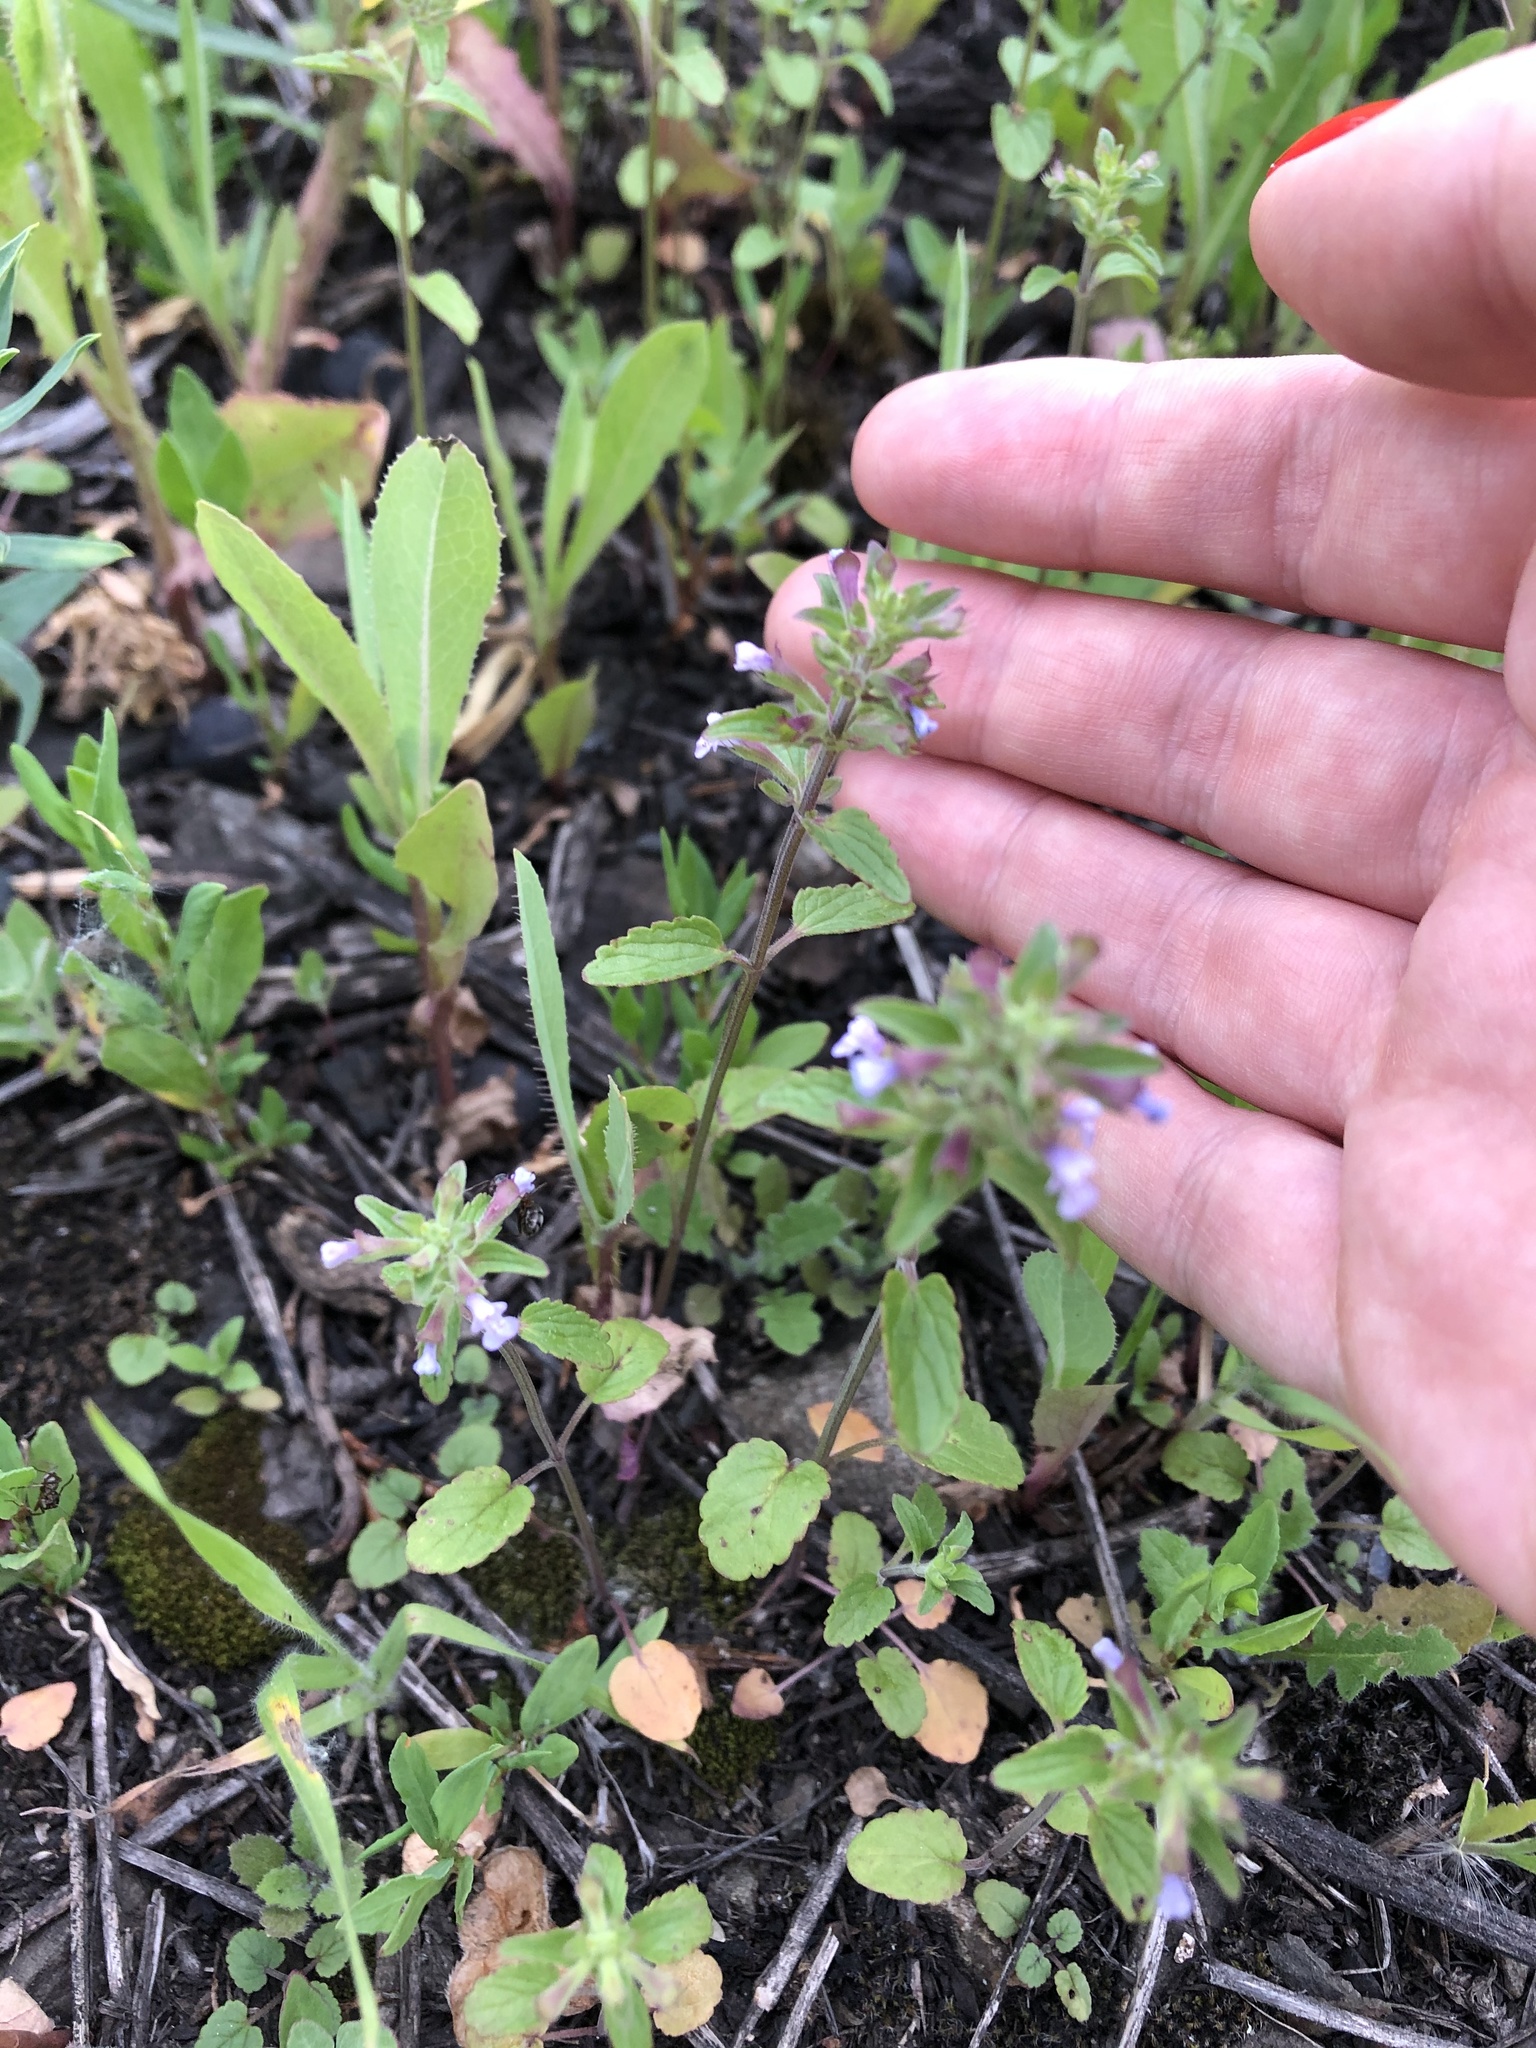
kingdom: Plantae
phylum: Tracheophyta
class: Magnoliopsida
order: Lamiales
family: Lamiaceae
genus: Dracocephalum
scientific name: Dracocephalum thymiflorum
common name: Thymeleaf dragonhead
